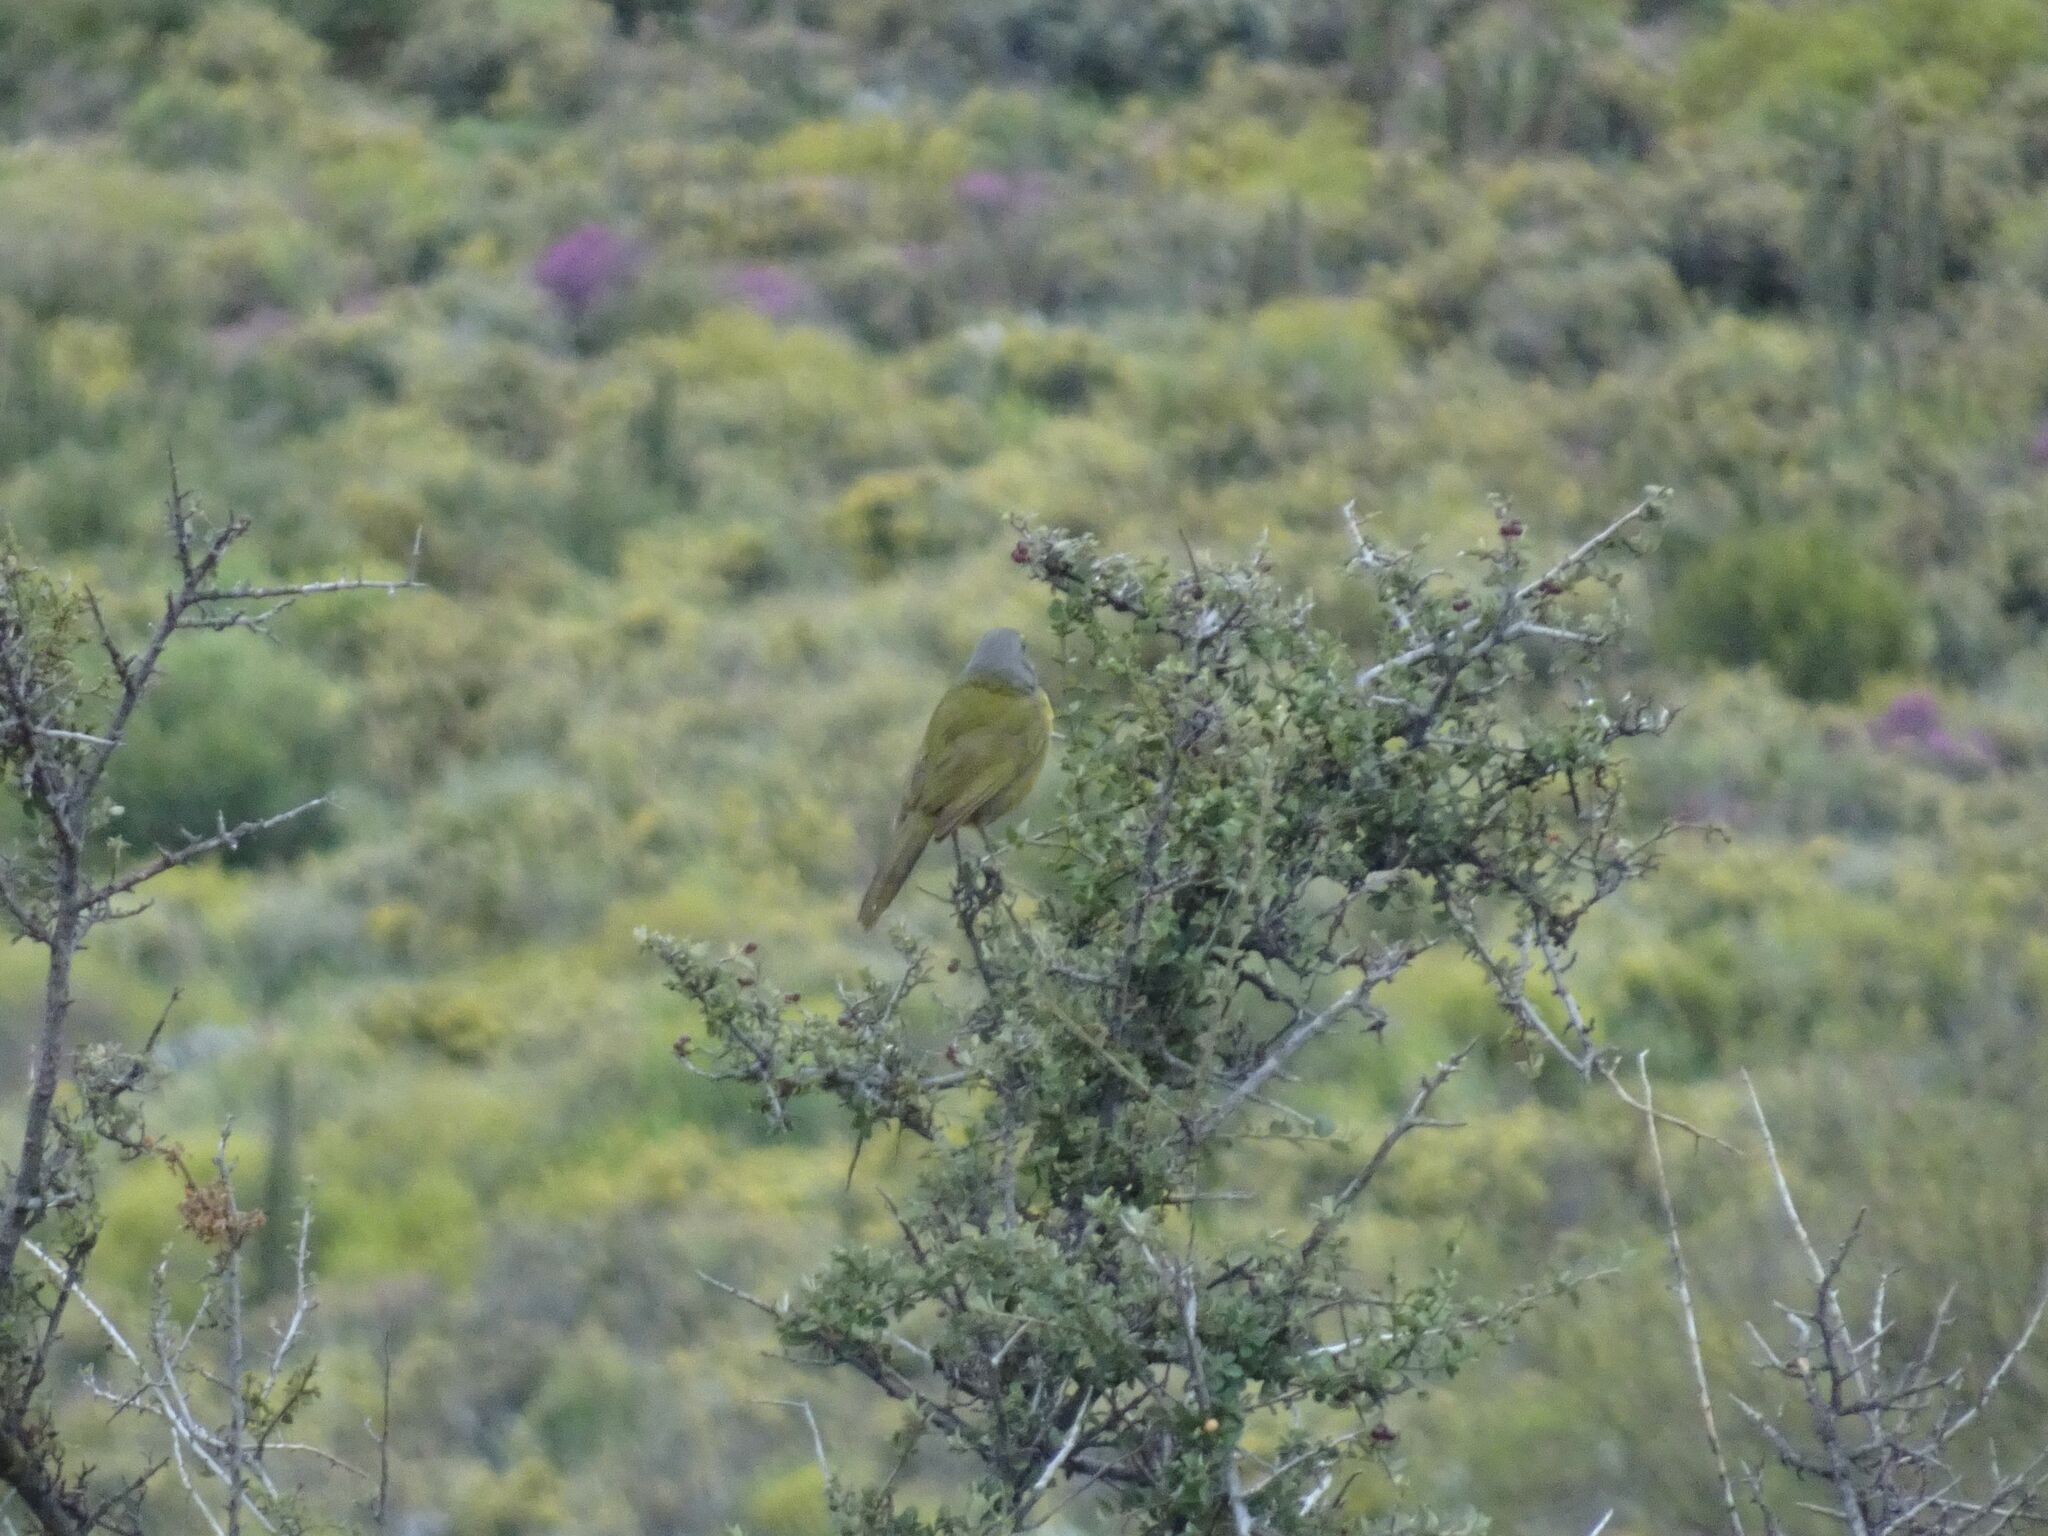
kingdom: Animalia
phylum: Chordata
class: Aves
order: Passeriformes
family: Malaconotidae
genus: Telophorus
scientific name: Telophorus zeylonus
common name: Bokmakierie
